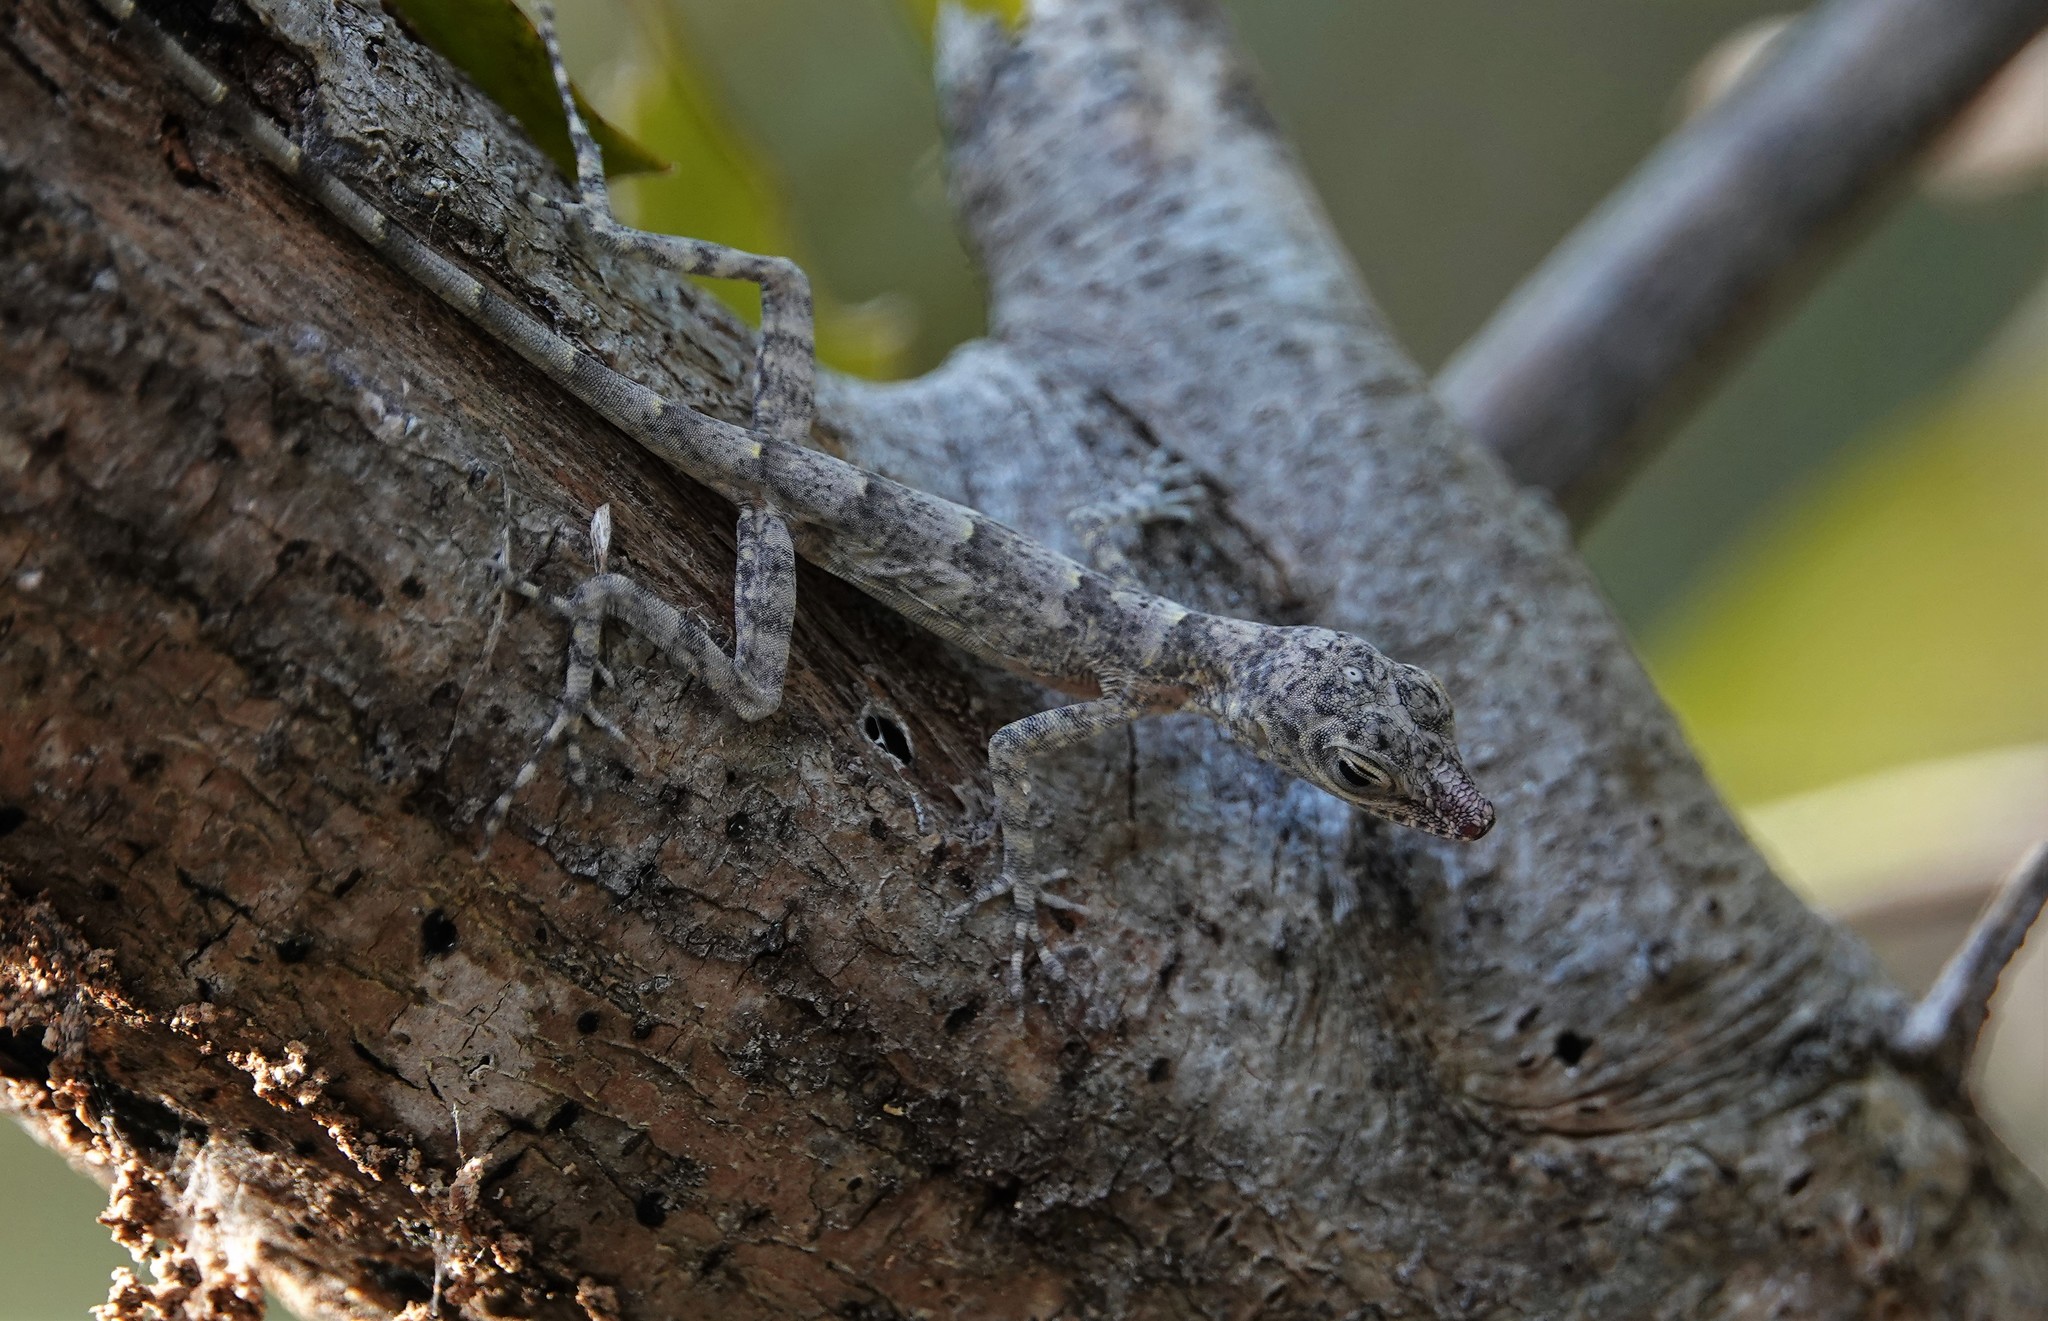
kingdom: Animalia
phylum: Chordata
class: Squamata
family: Dactyloidae
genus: Anolis
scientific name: Anolis argenteolus
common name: Guantanamo anole
